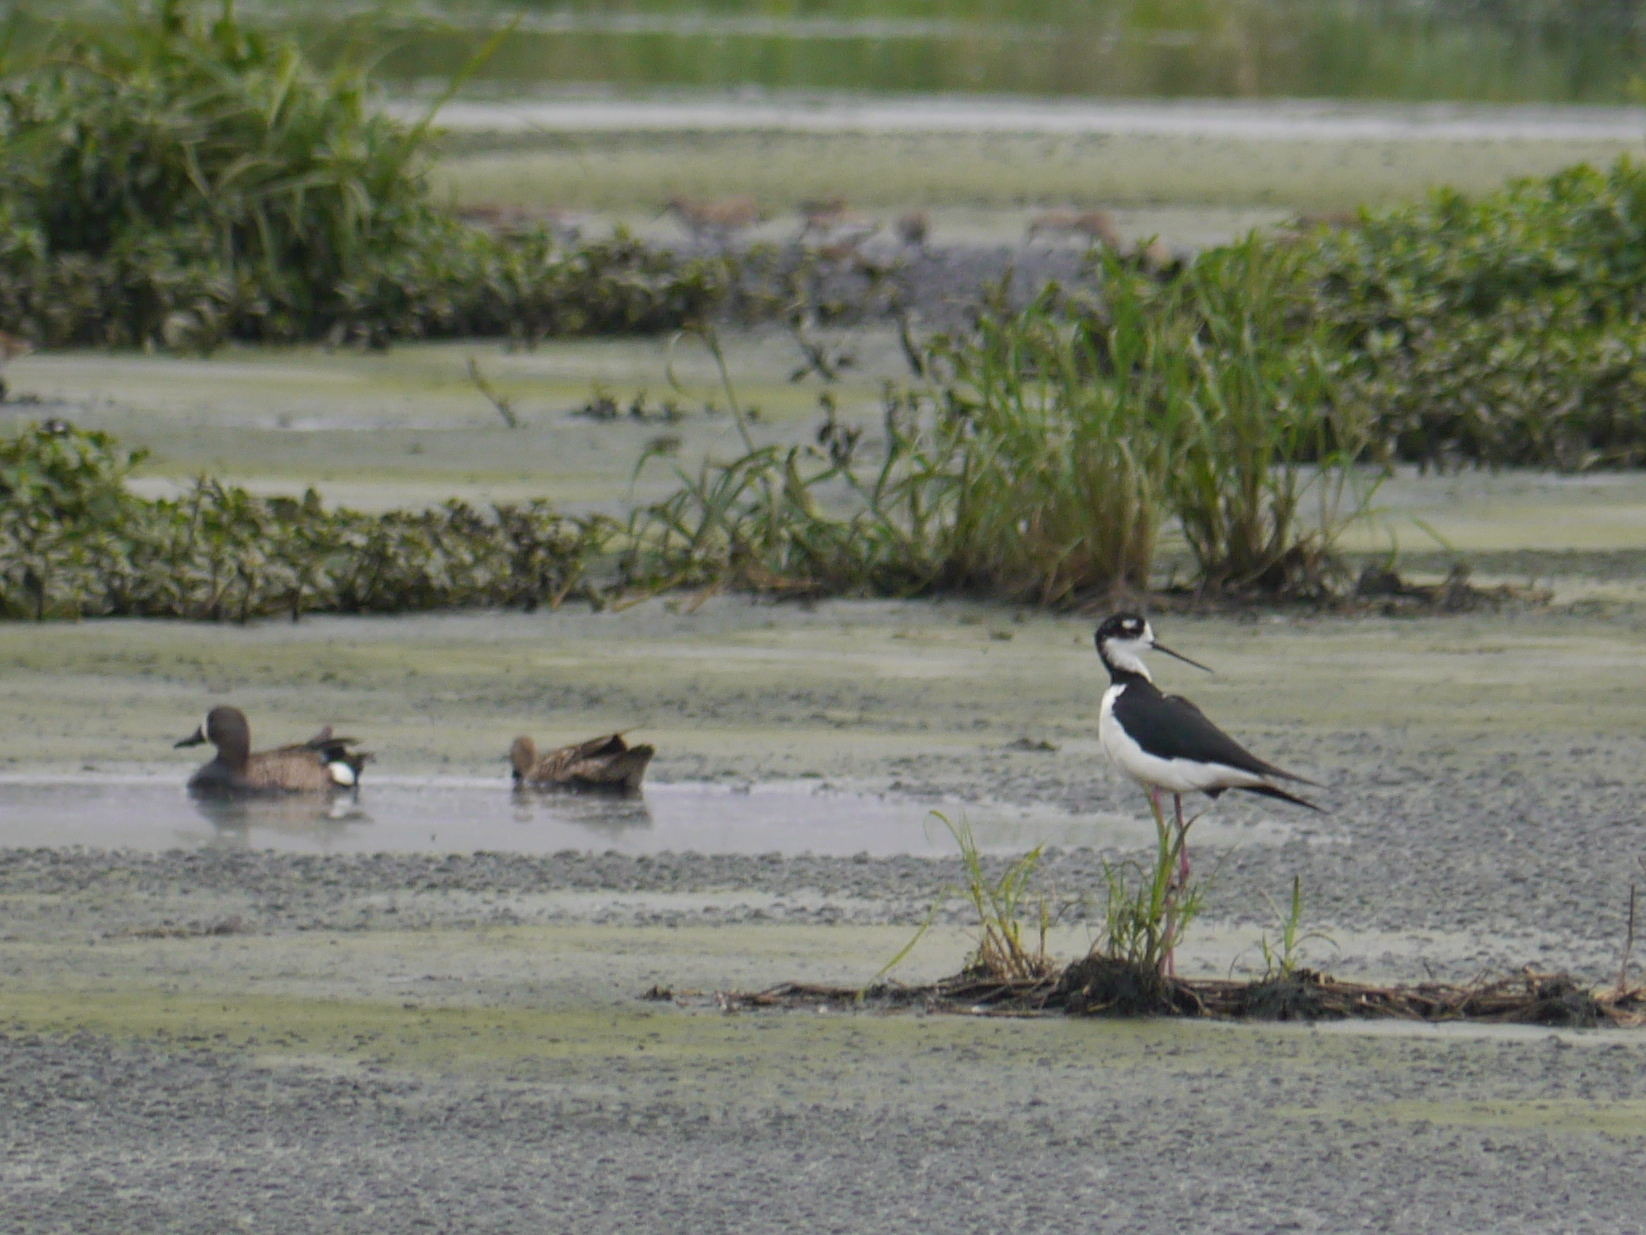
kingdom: Animalia
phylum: Chordata
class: Aves
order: Anseriformes
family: Anatidae
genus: Spatula
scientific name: Spatula discors
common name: Blue-winged teal
